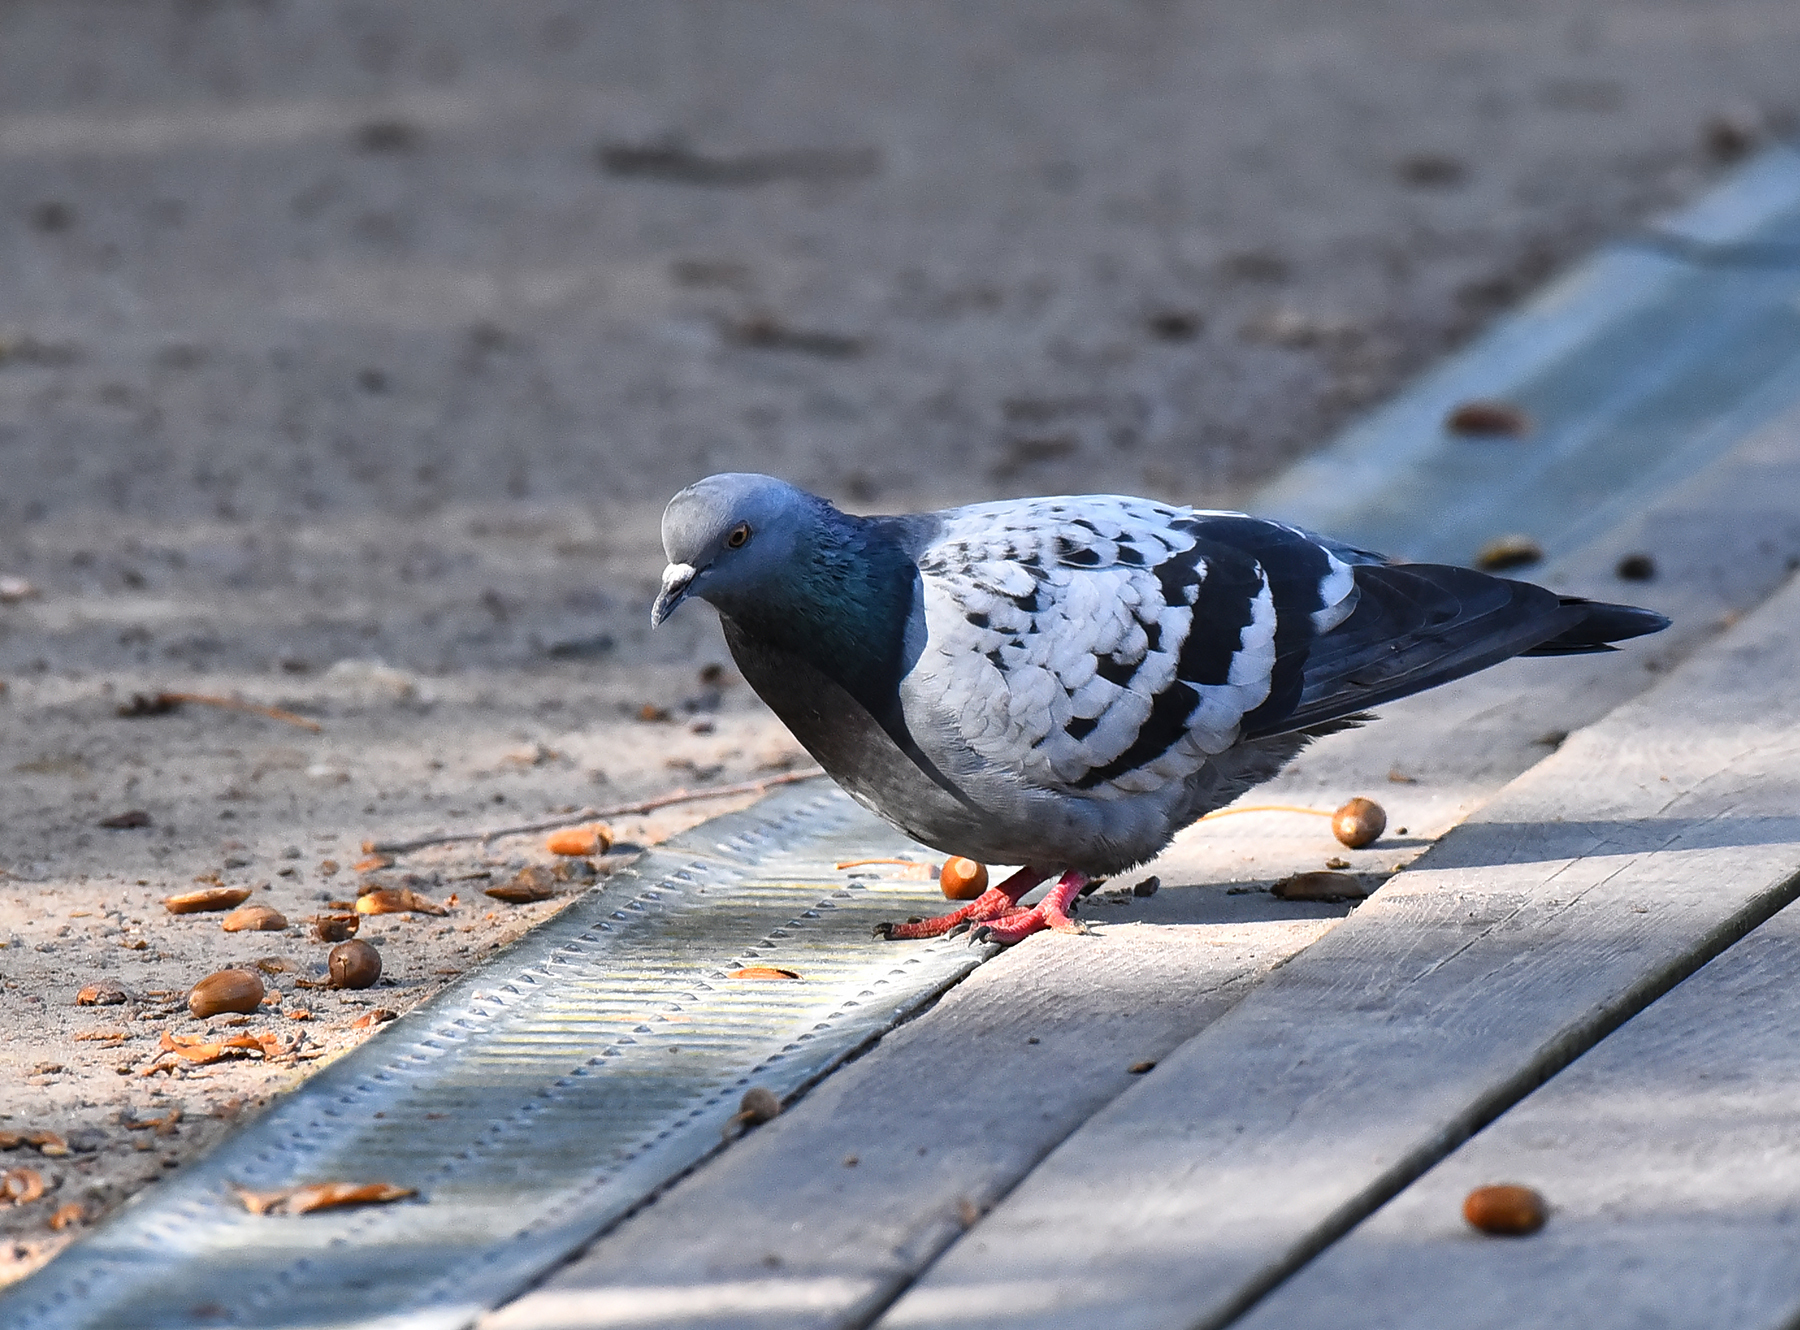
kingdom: Animalia
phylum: Chordata
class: Aves
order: Columbiformes
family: Columbidae
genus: Columba
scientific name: Columba livia
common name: Rock pigeon
